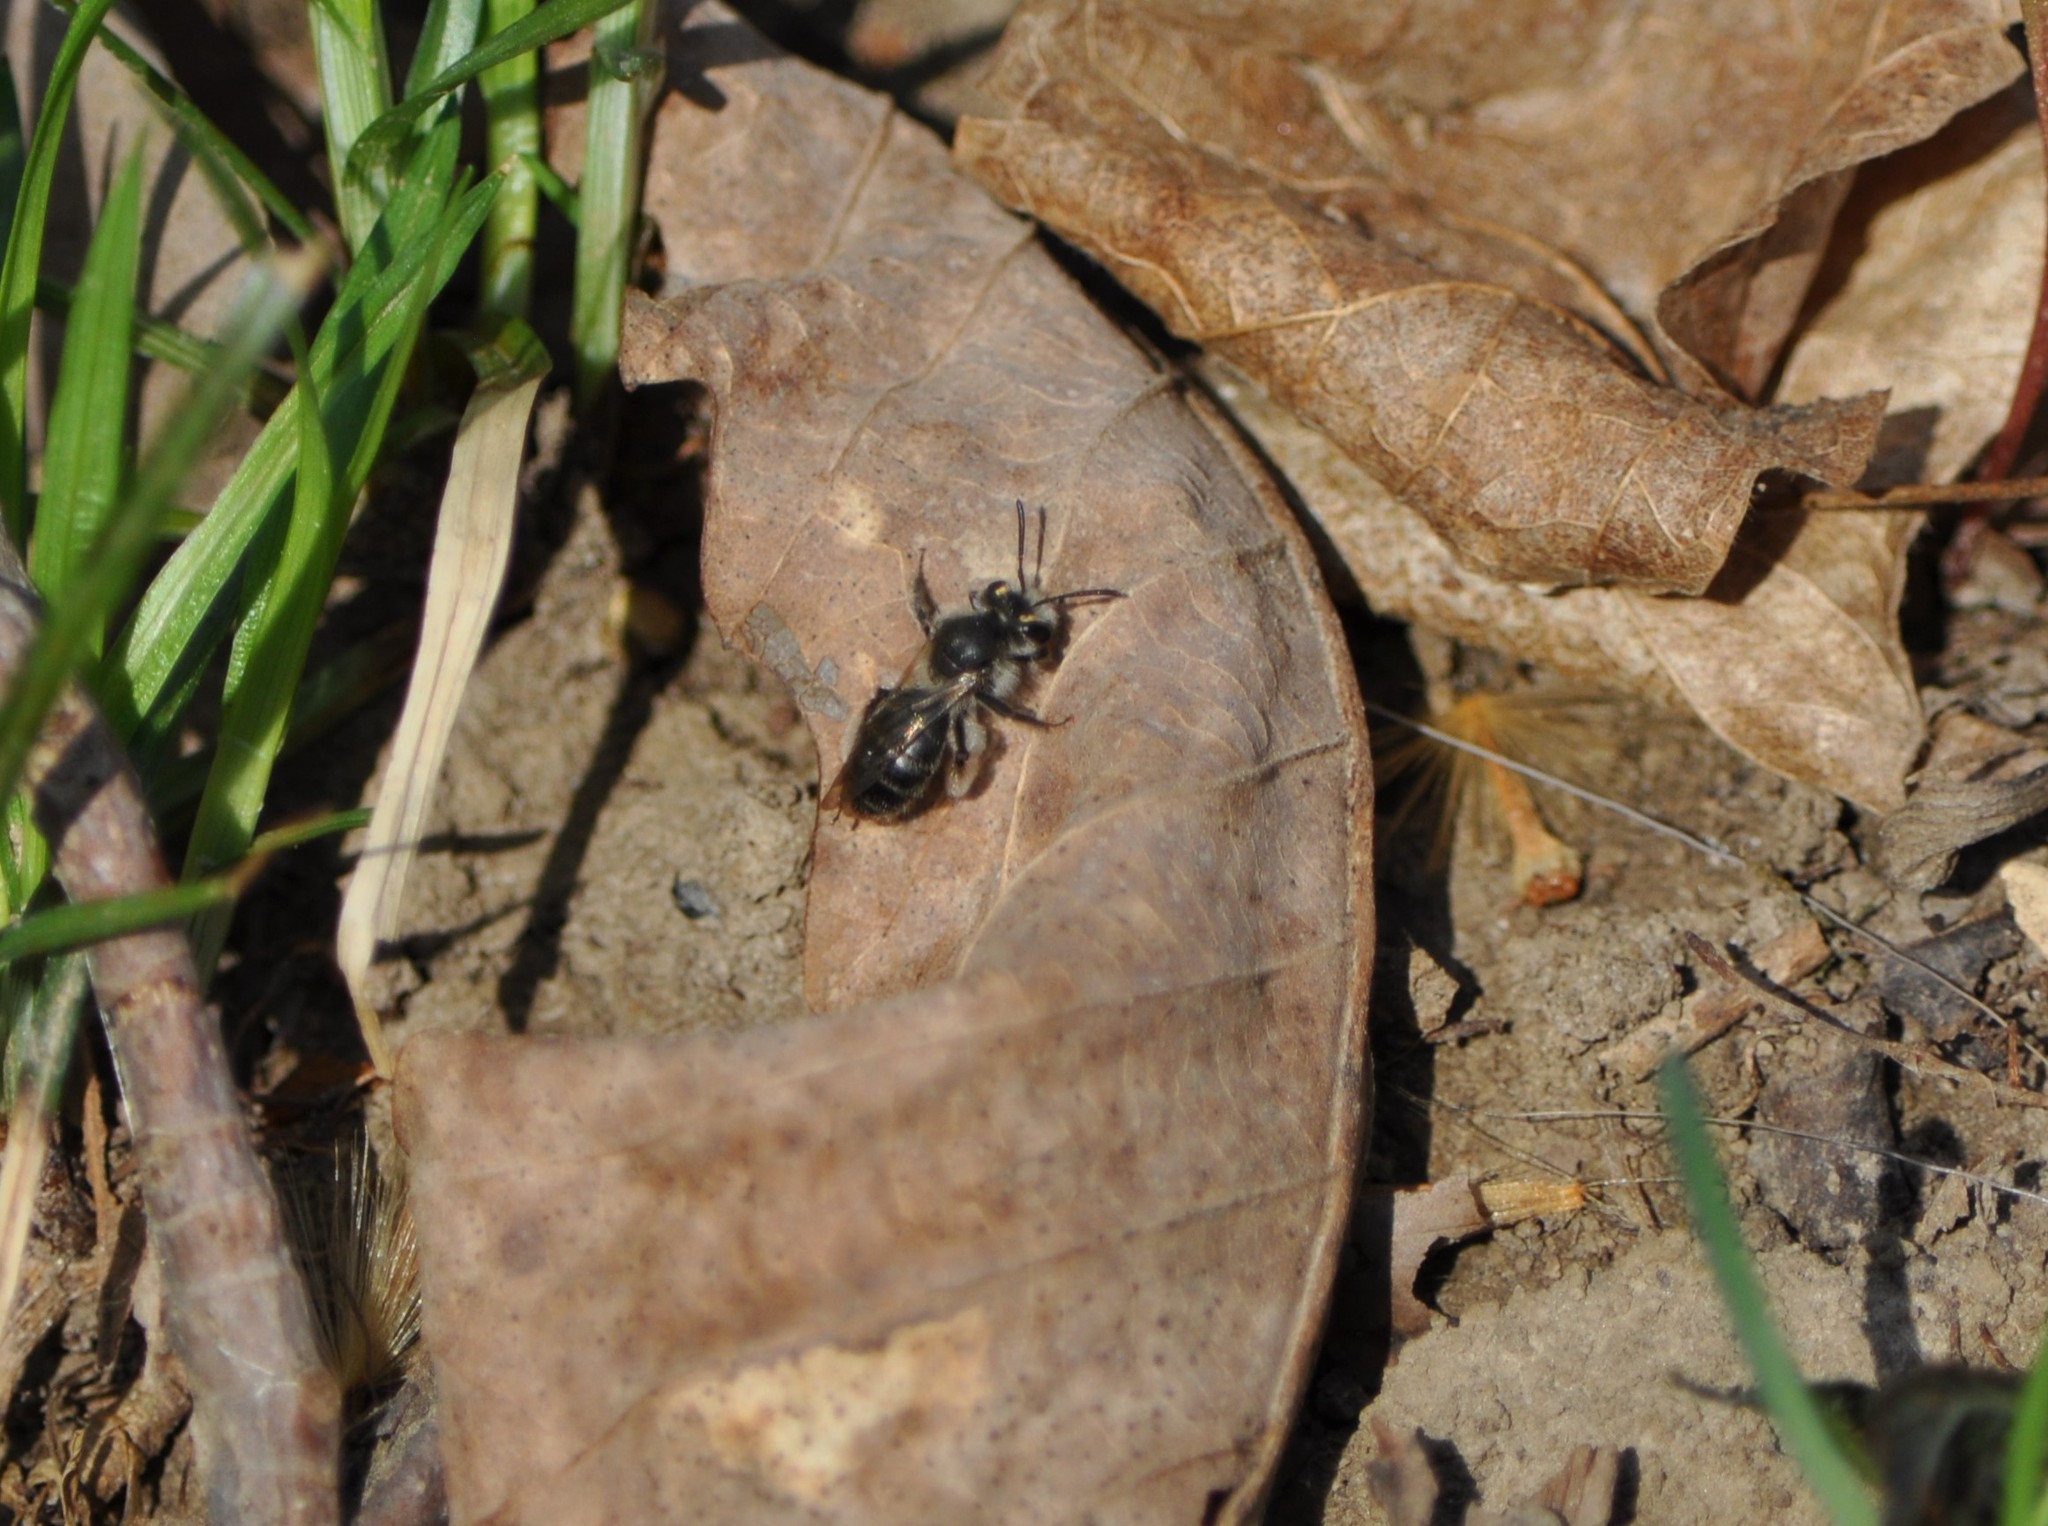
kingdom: Animalia
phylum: Arthropoda
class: Insecta
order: Hymenoptera
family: Andrenidae
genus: Andrena
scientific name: Andrena erigeniae
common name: Spring beauty miner
